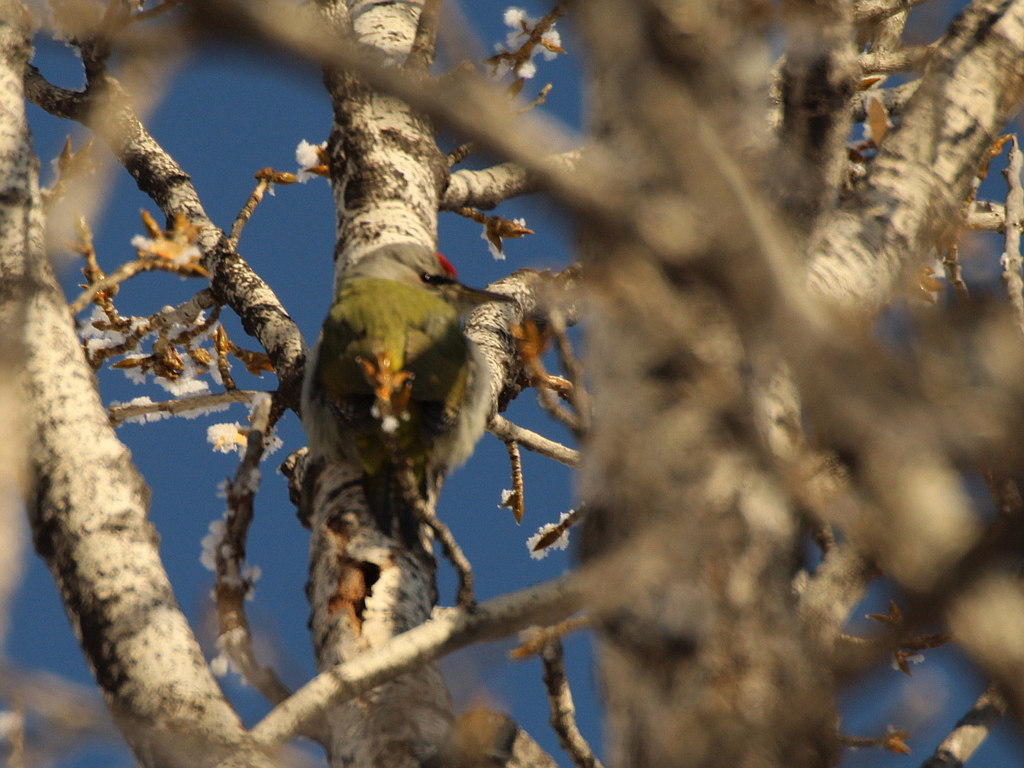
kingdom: Animalia
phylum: Chordata
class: Aves
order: Piciformes
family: Picidae
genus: Picus
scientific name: Picus canus
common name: Grey-headed woodpecker
